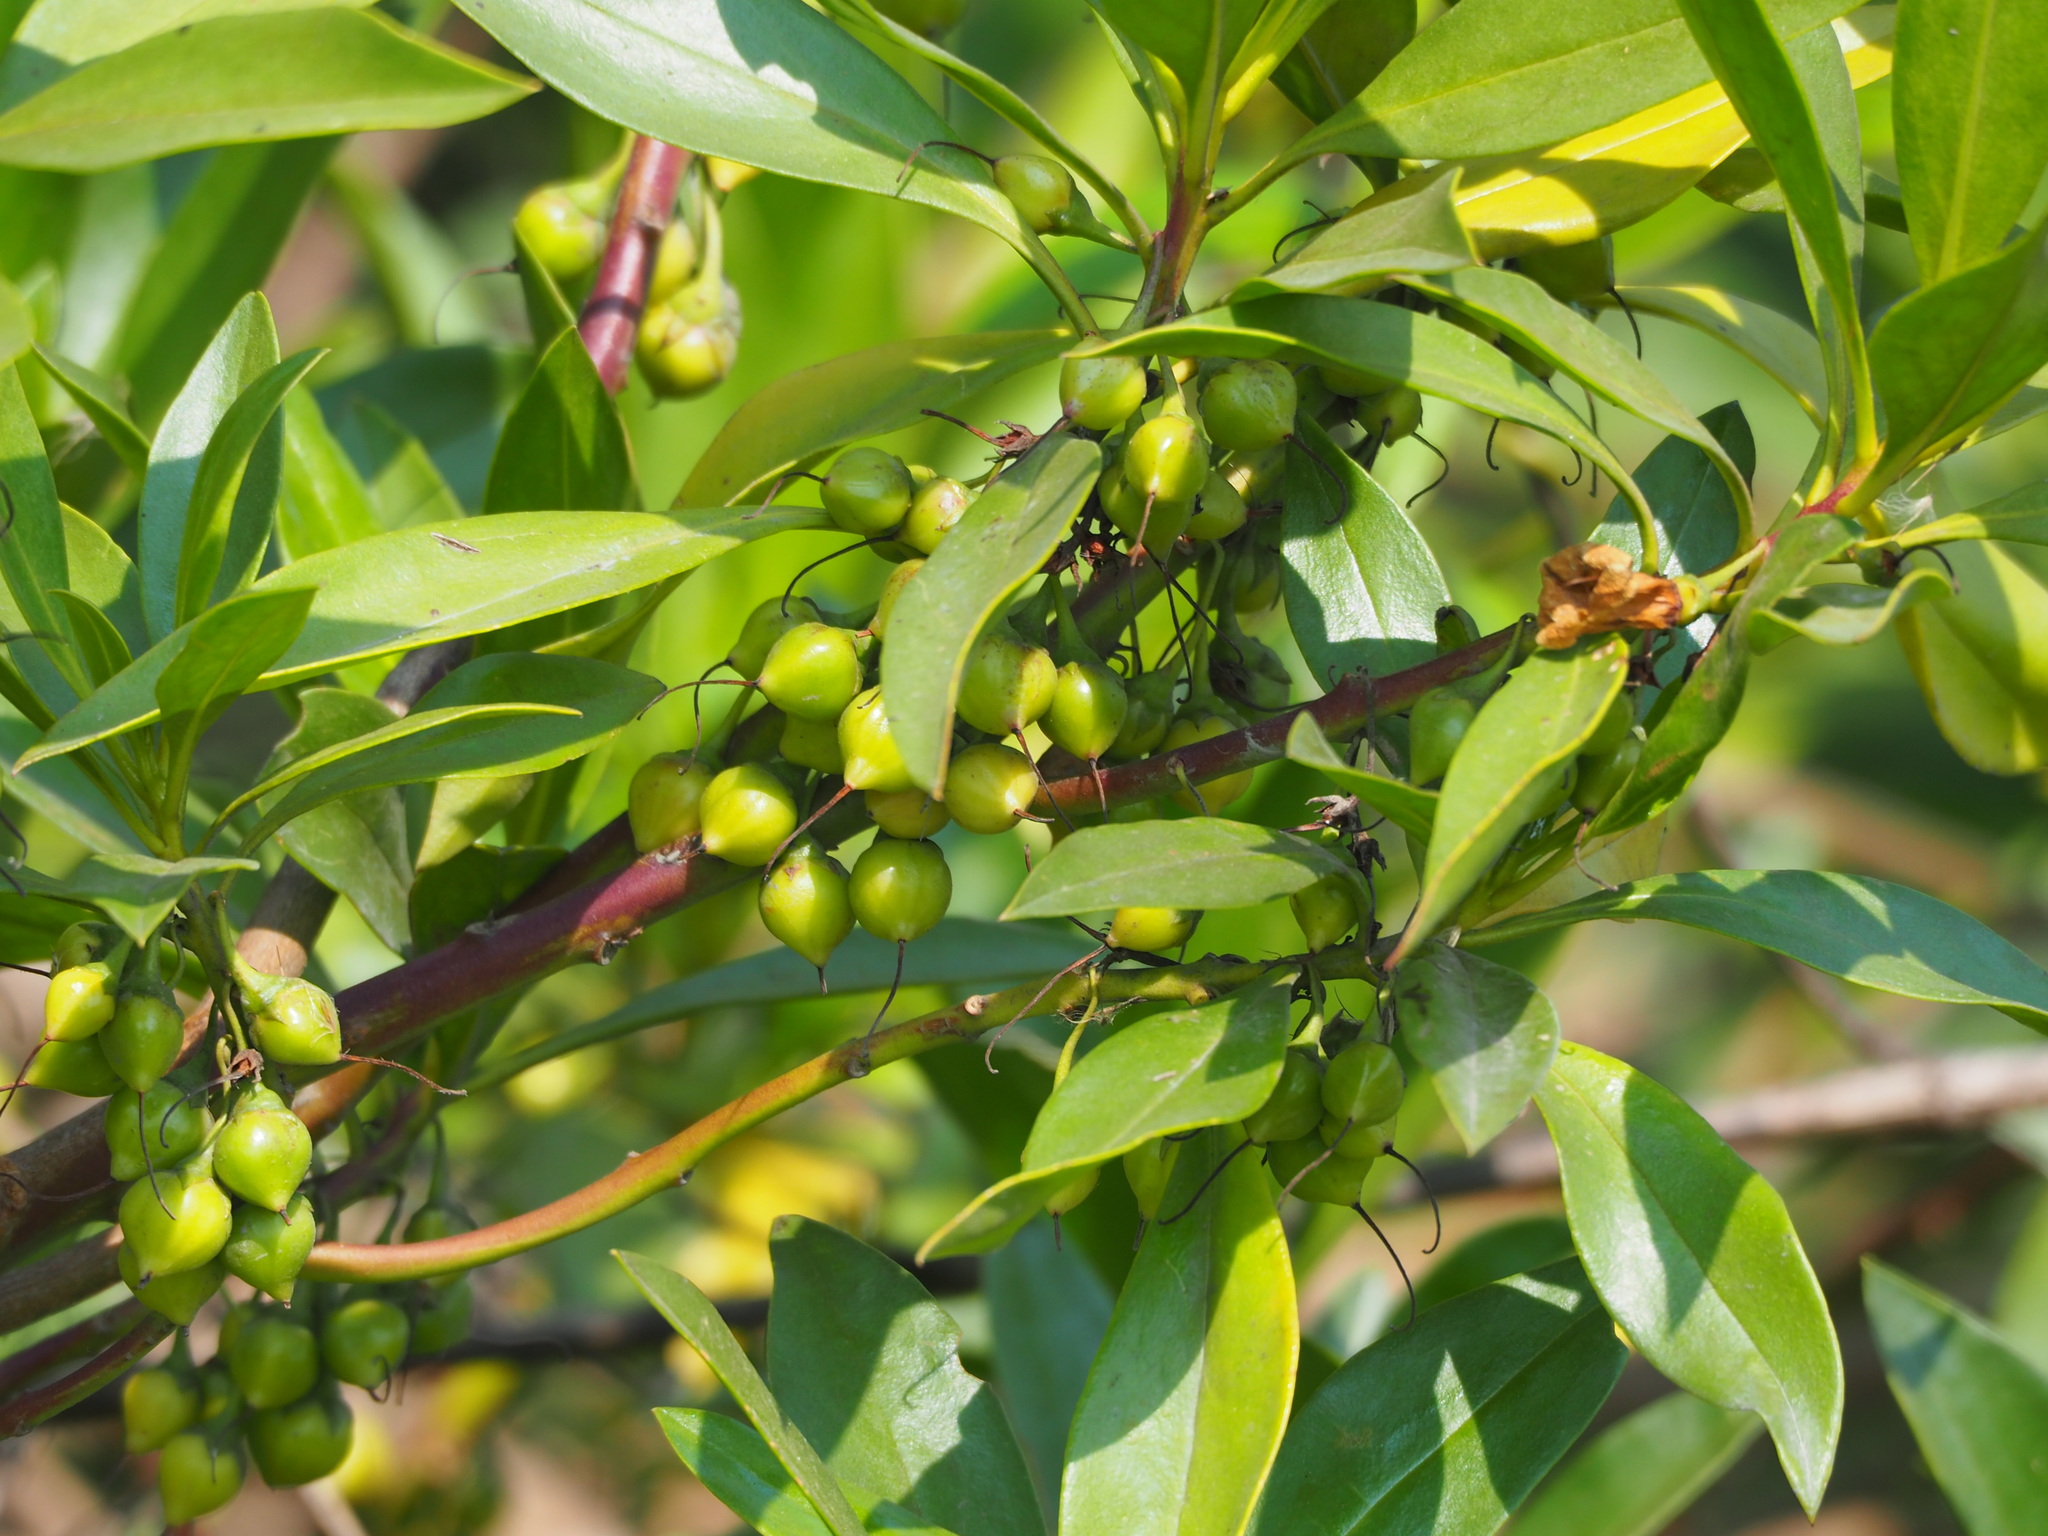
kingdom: Plantae
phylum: Tracheophyta
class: Magnoliopsida
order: Lamiales
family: Scrophulariaceae
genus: Myoporum
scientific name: Myoporum bontioides
